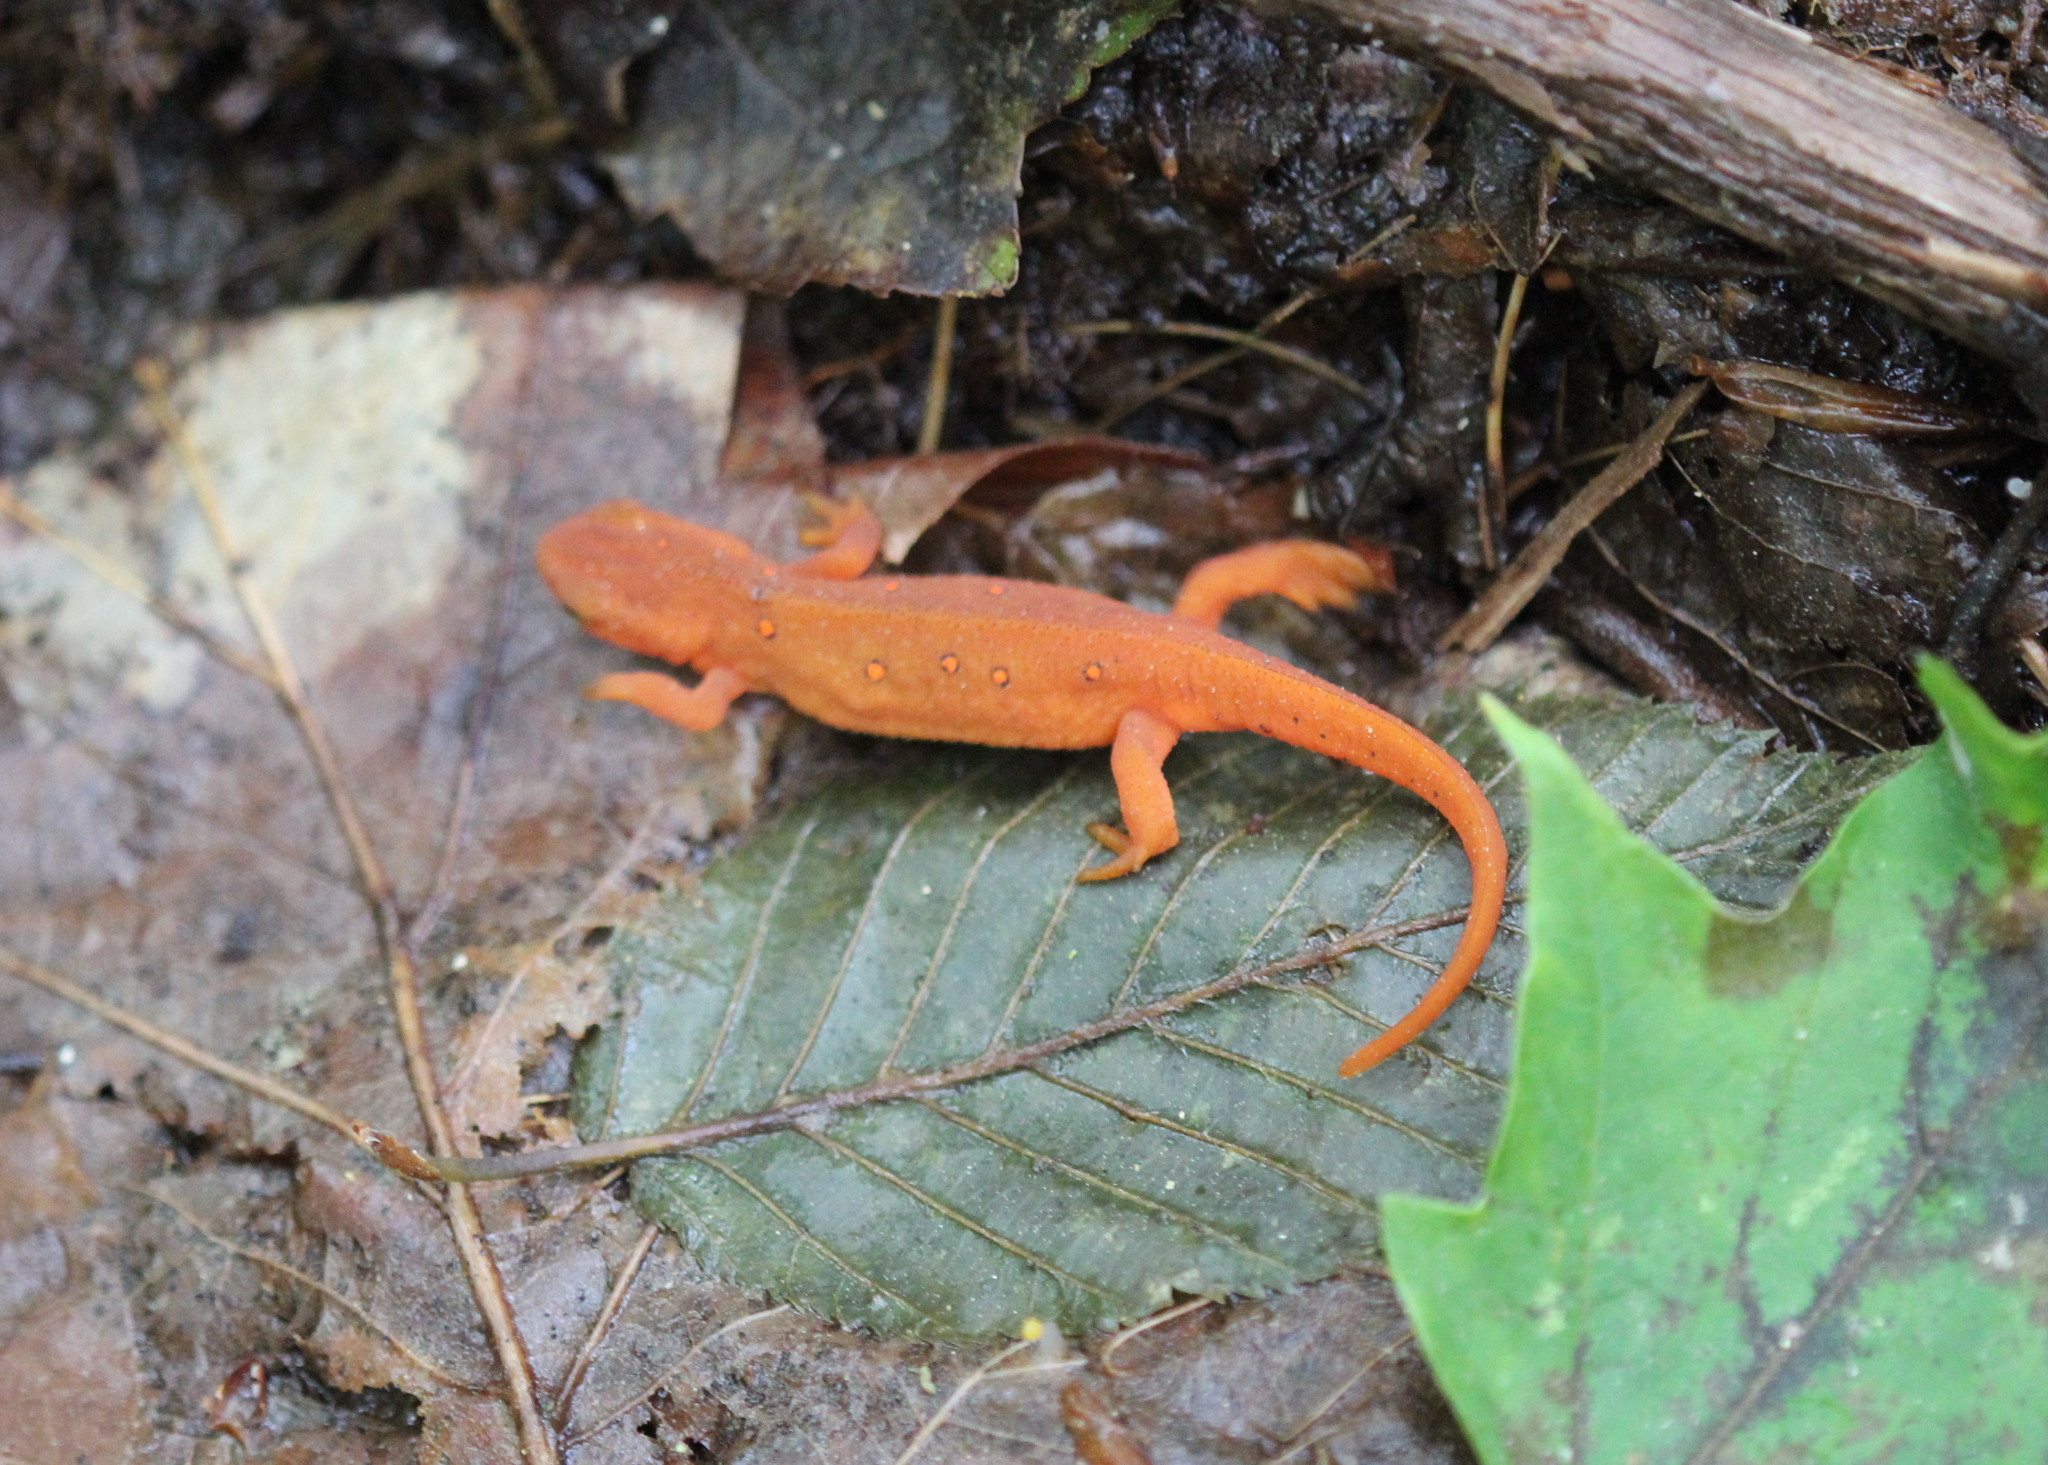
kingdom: Animalia
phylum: Chordata
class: Amphibia
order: Caudata
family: Salamandridae
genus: Notophthalmus
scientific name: Notophthalmus viridescens
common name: Eastern newt
